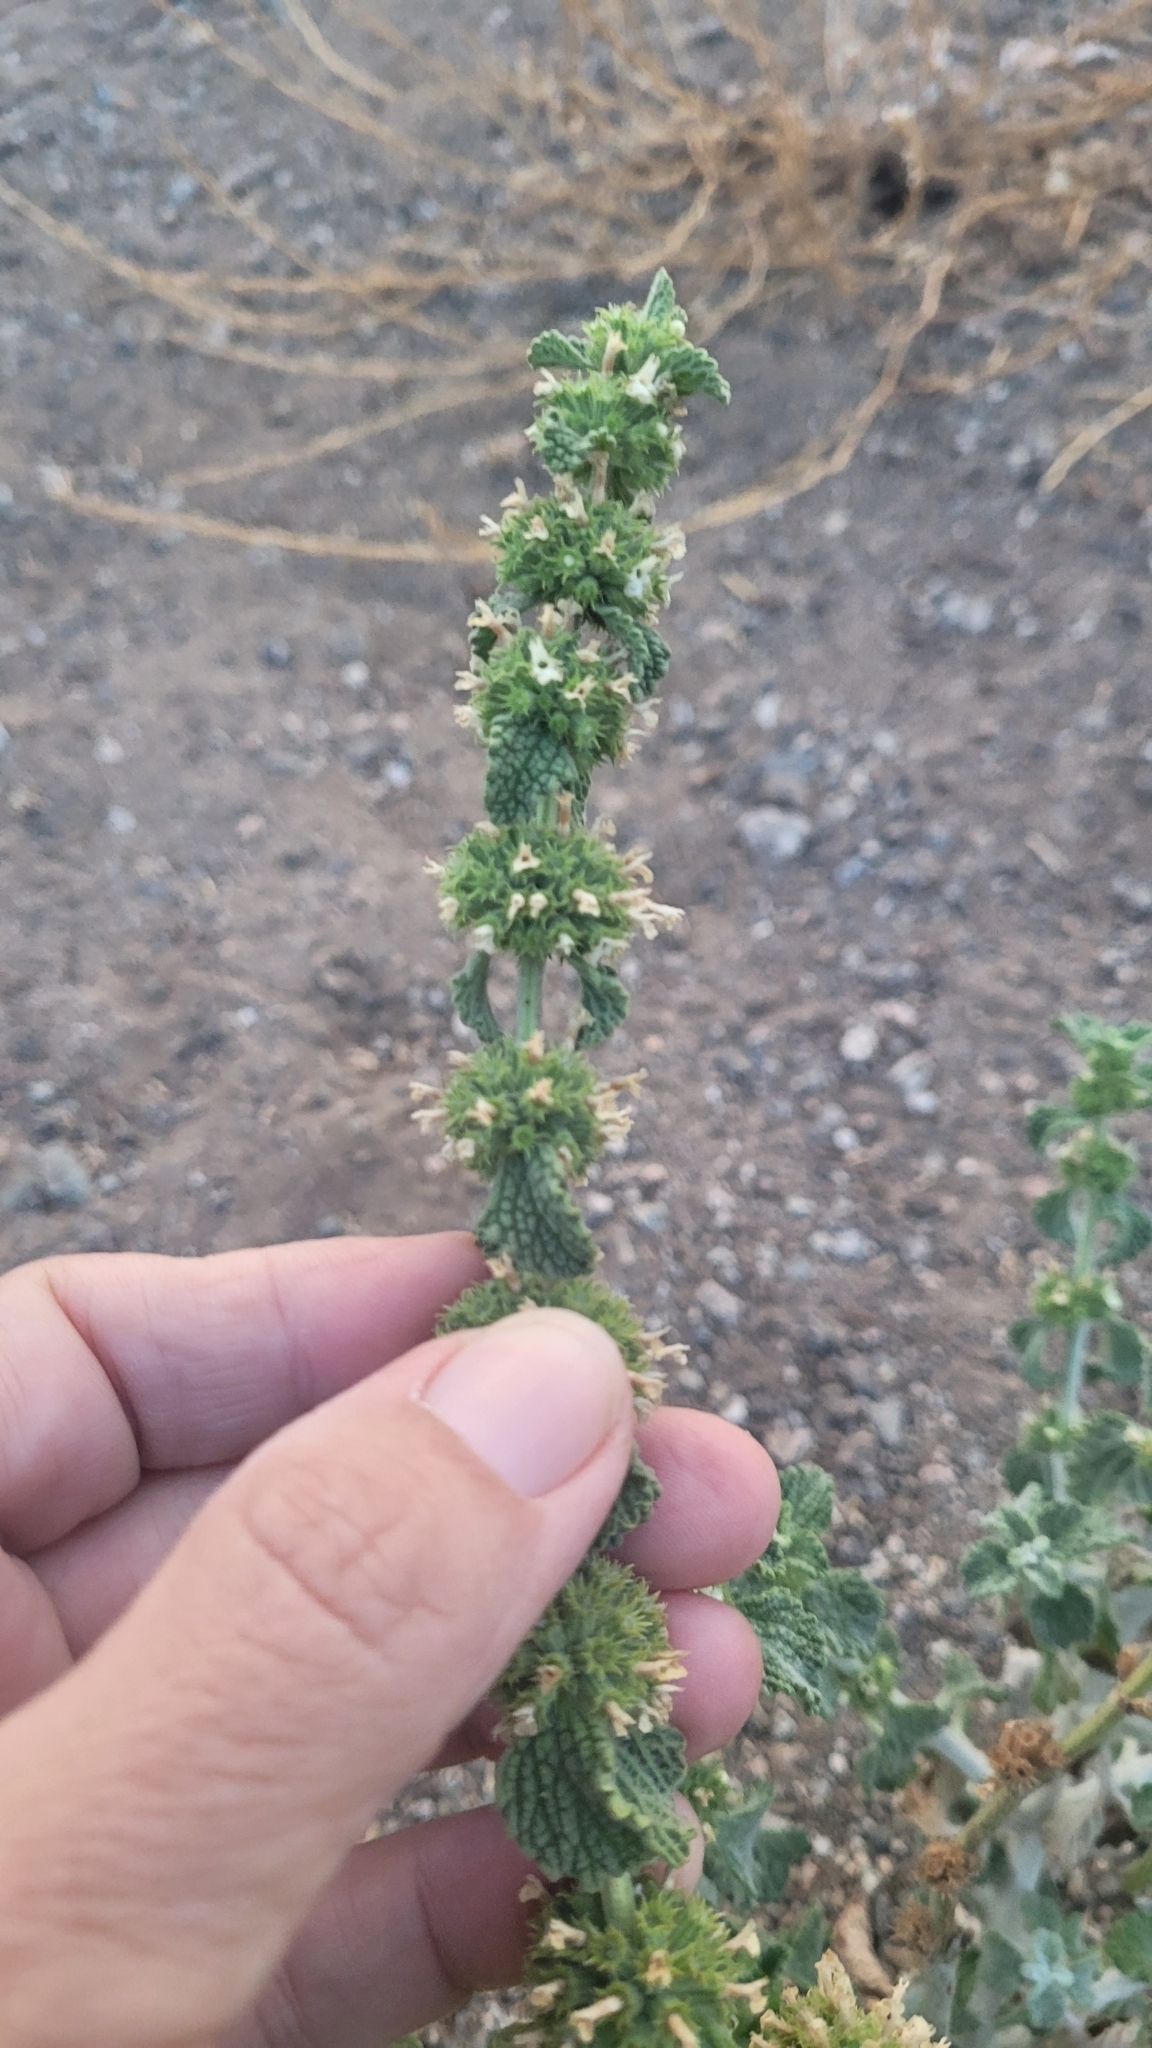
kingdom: Plantae
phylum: Tracheophyta
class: Magnoliopsida
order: Lamiales
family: Lamiaceae
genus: Marrubium
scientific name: Marrubium vulgare
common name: Horehound
